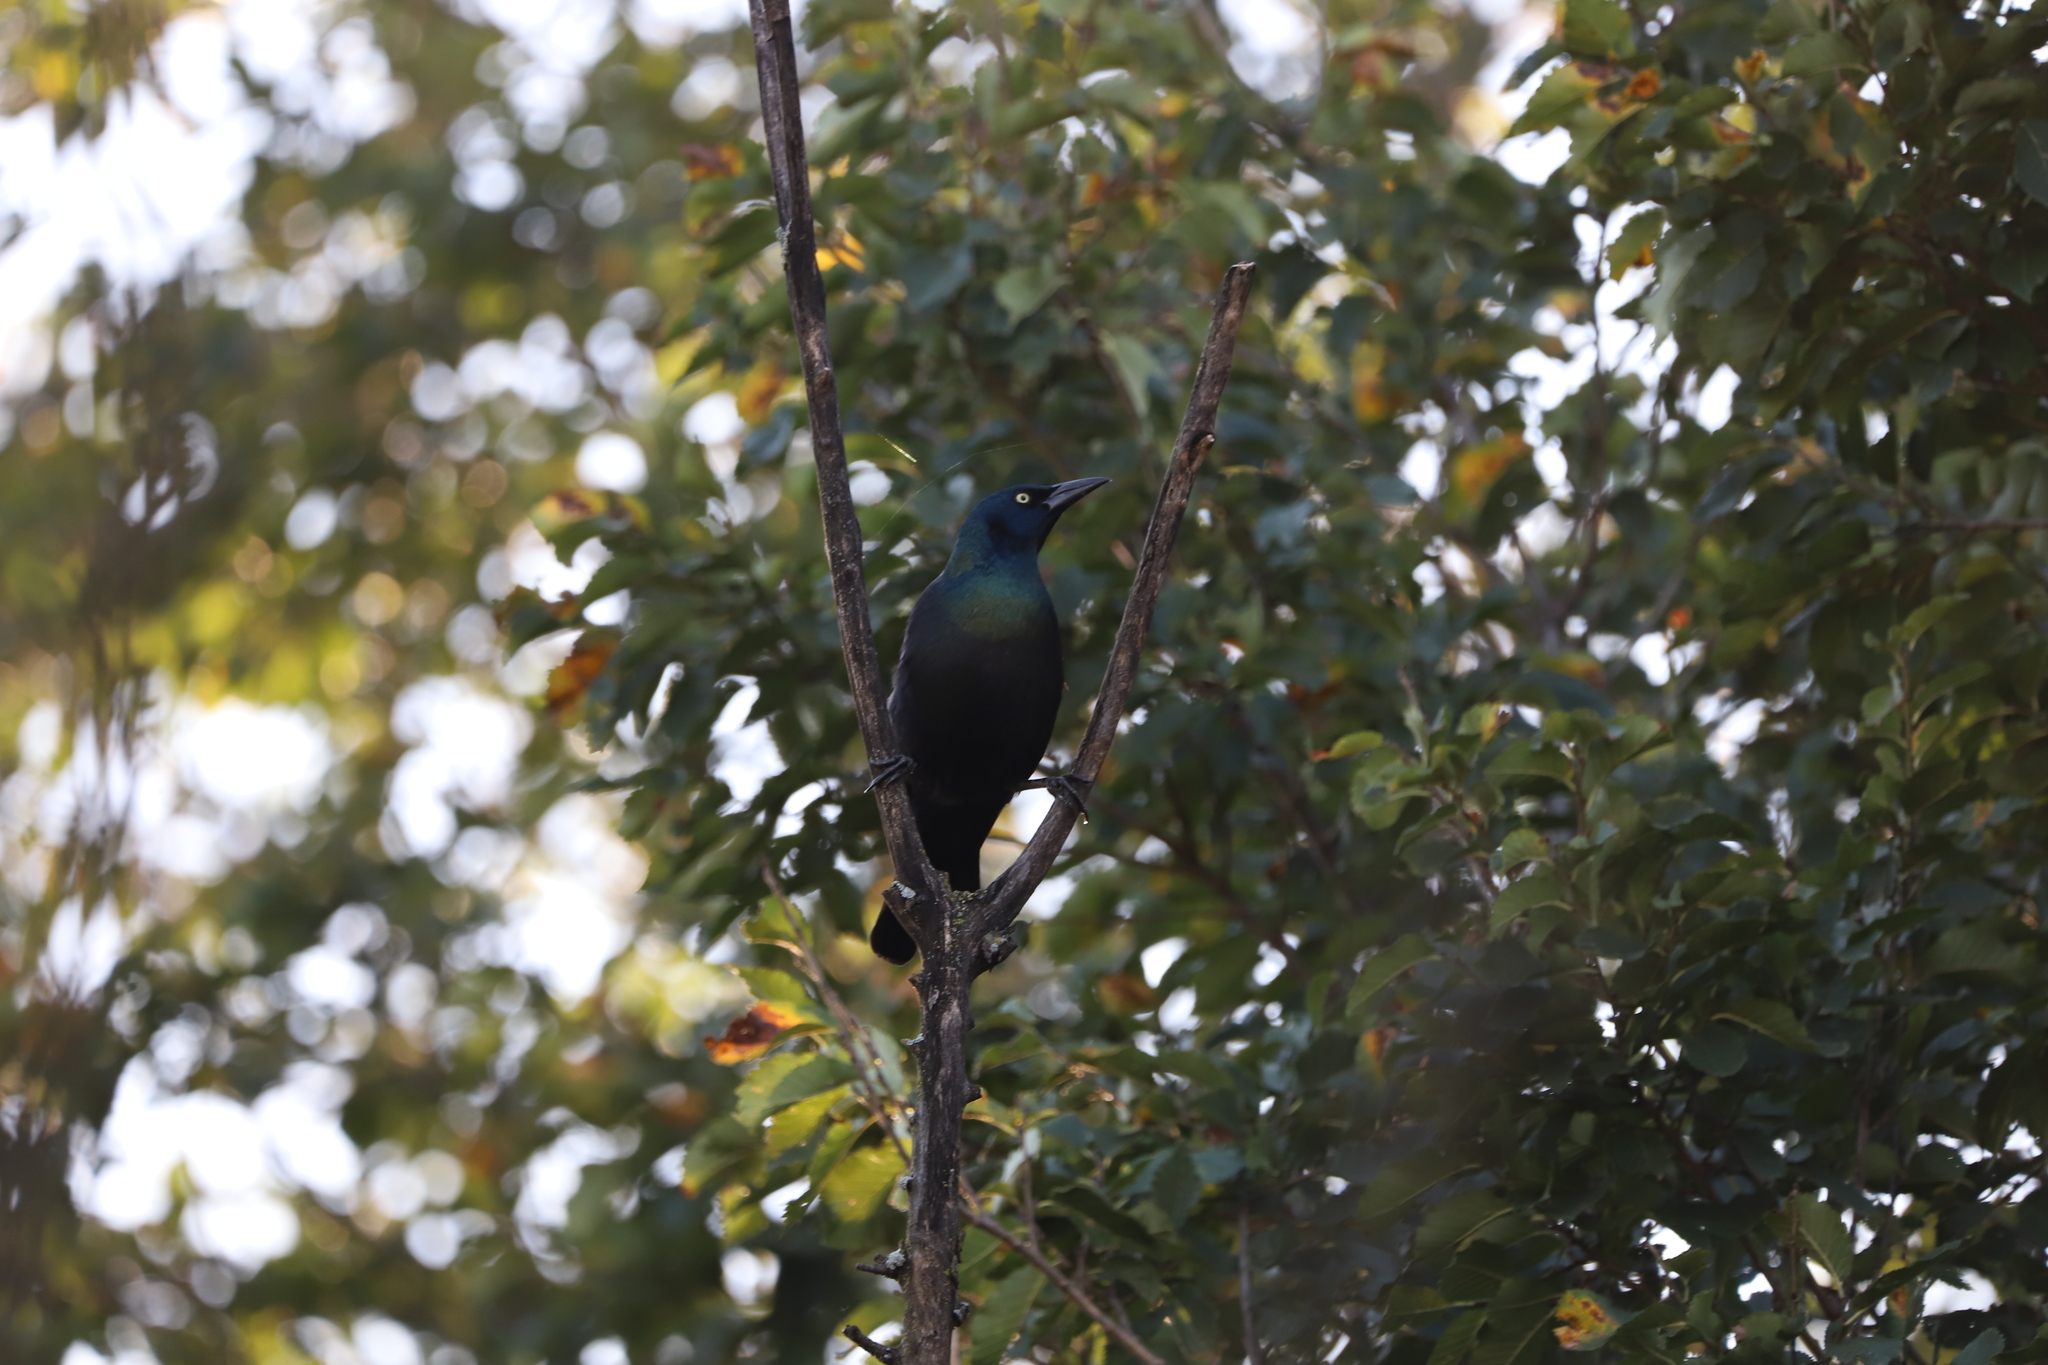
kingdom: Animalia
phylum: Chordata
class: Aves
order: Passeriformes
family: Icteridae
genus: Quiscalus
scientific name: Quiscalus quiscula
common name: Common grackle
